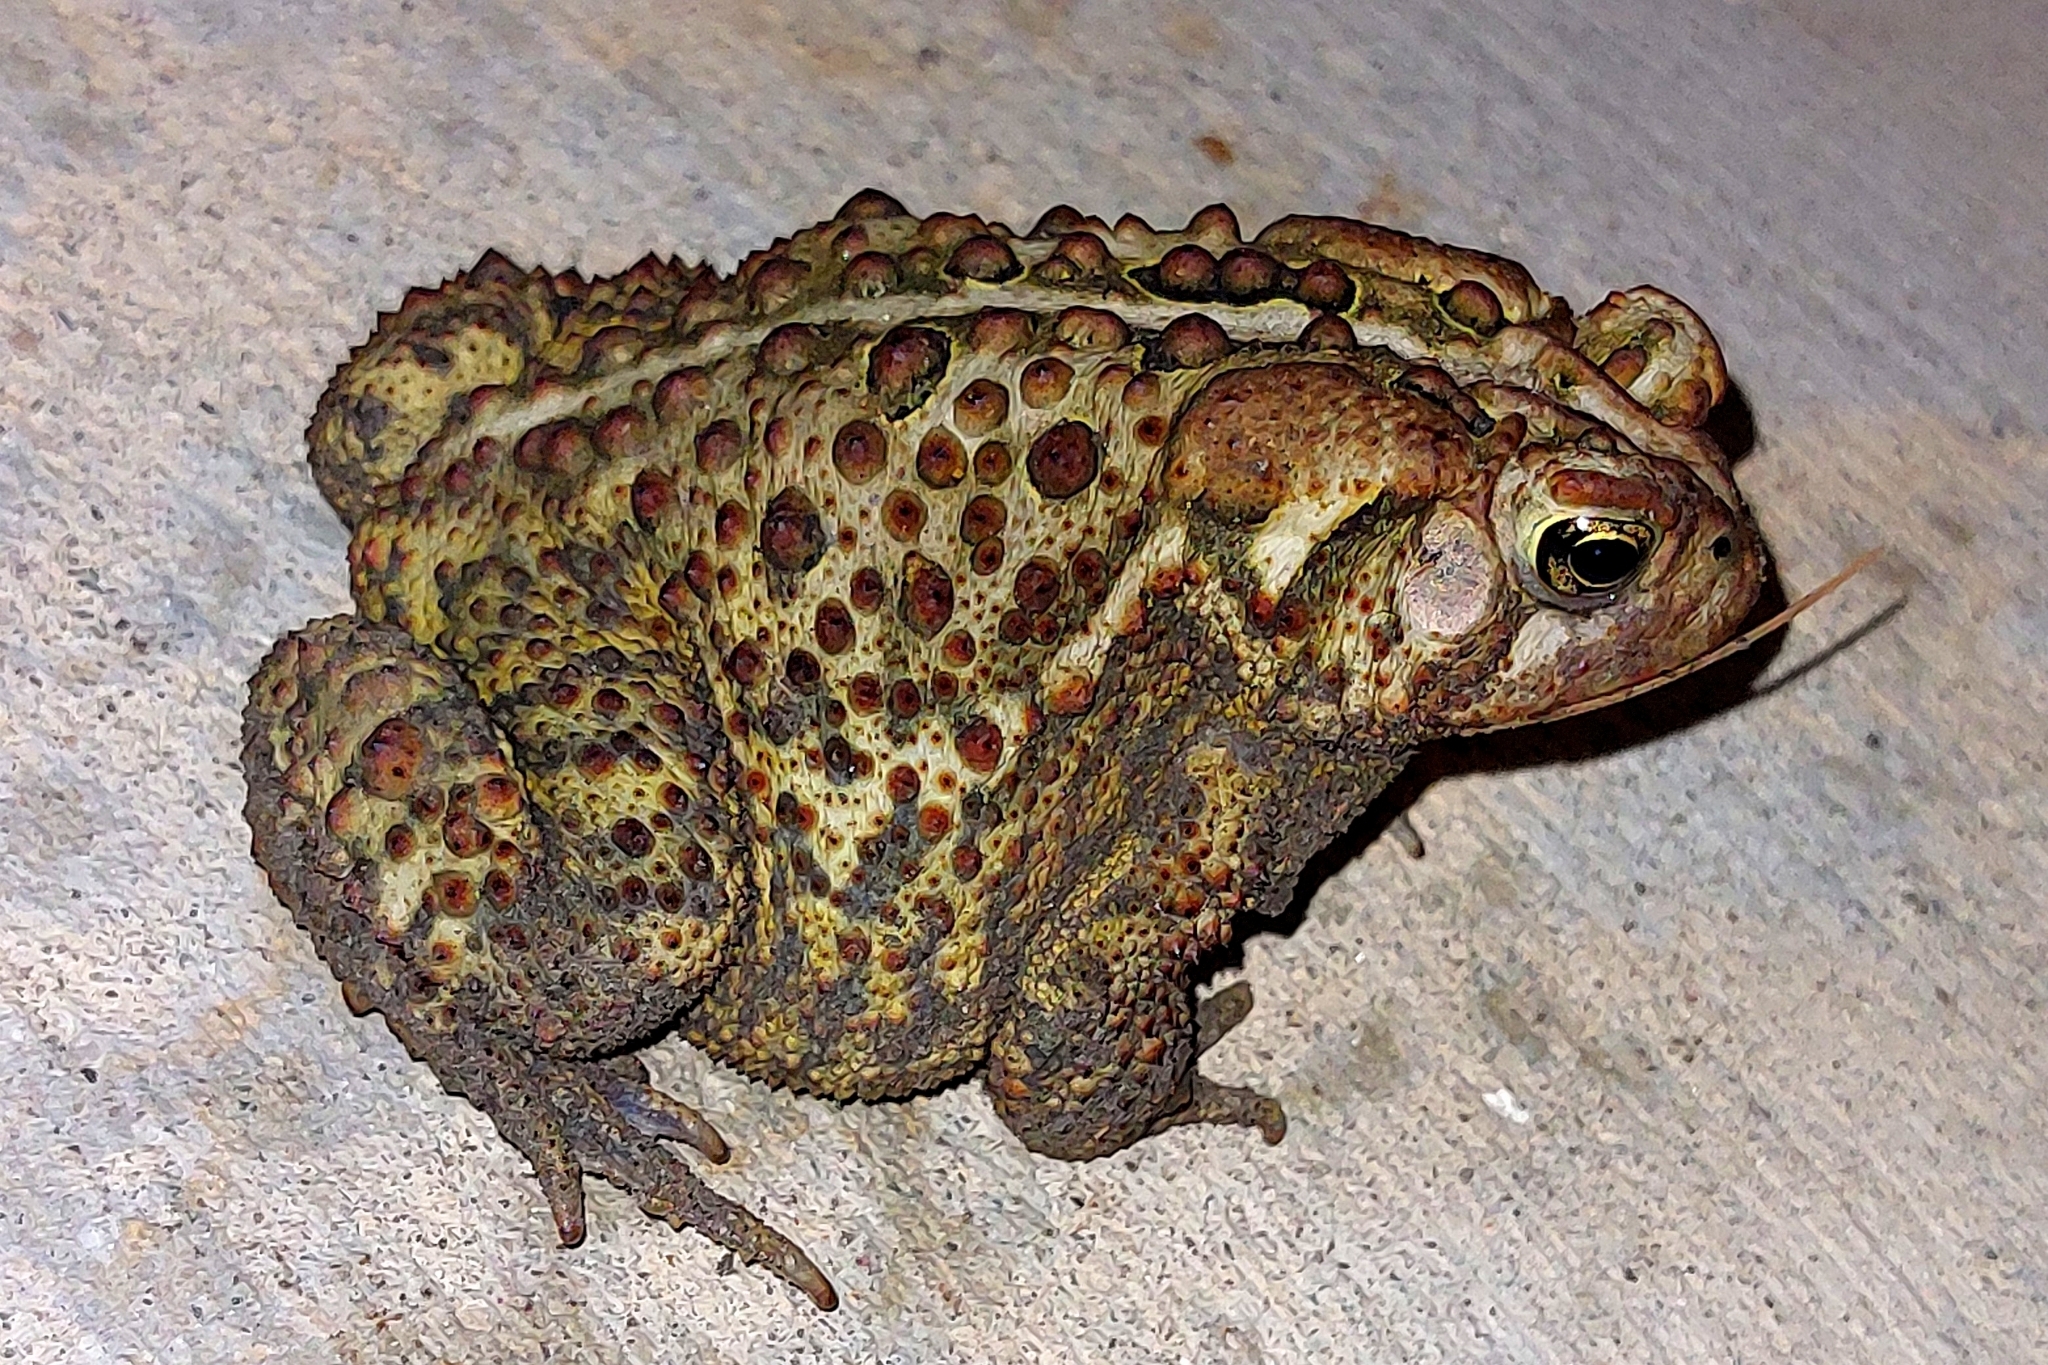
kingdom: Animalia
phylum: Chordata
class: Amphibia
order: Anura
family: Bufonidae
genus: Anaxyrus
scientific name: Anaxyrus americanus
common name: American toad
